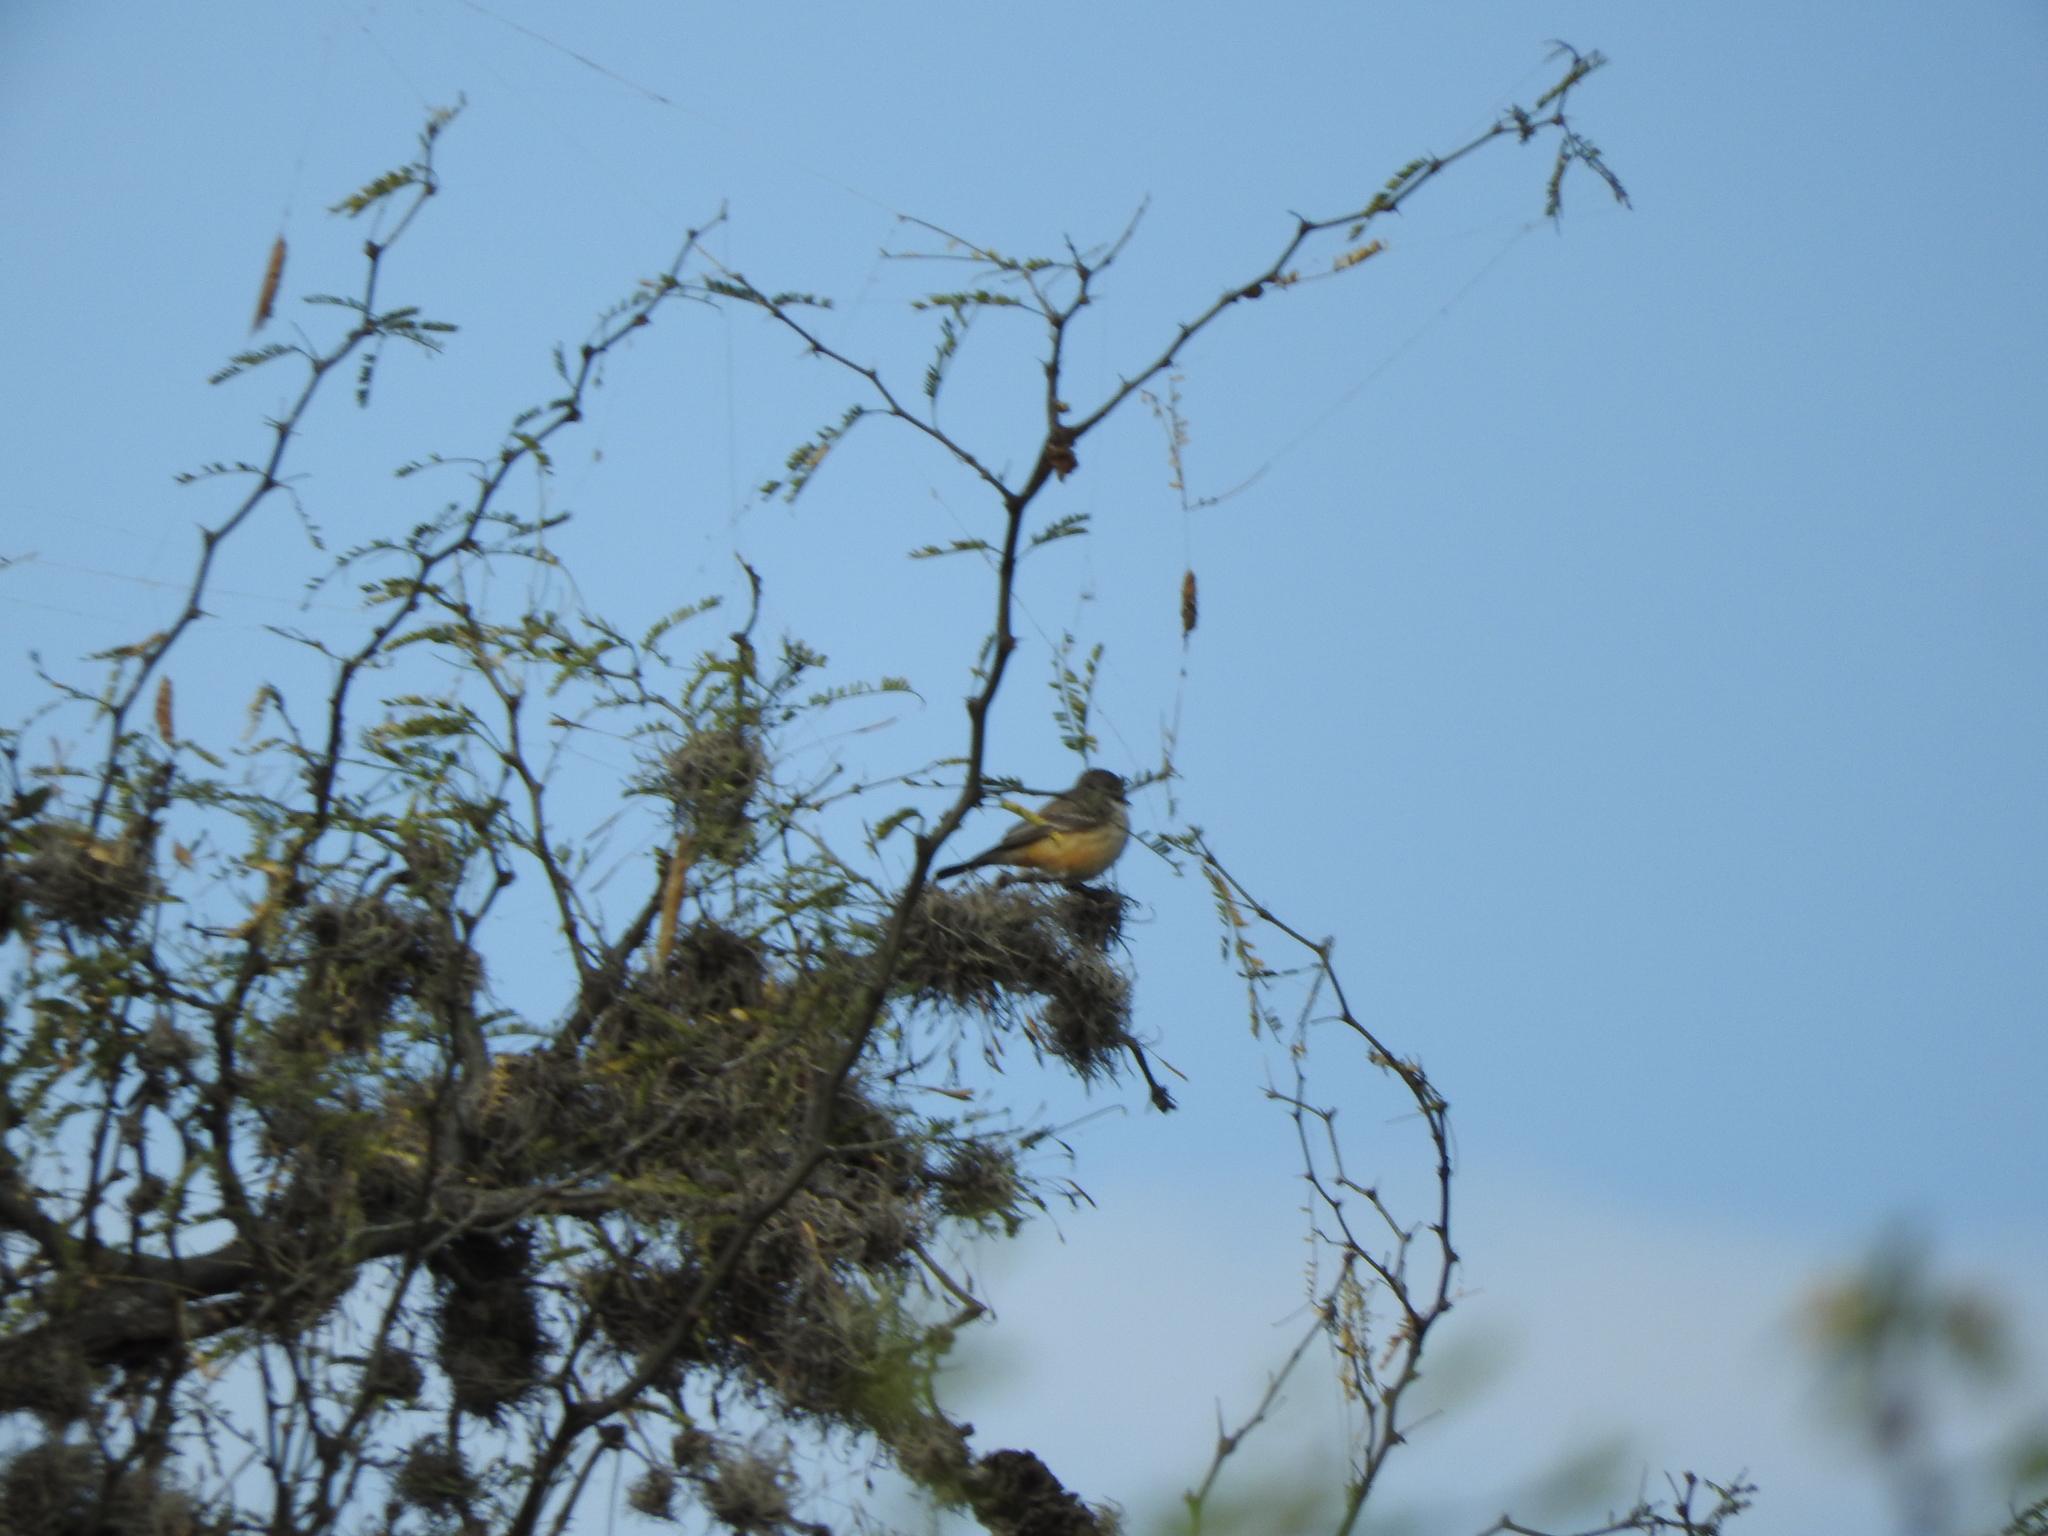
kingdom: Animalia
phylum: Chordata
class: Aves
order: Passeriformes
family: Tyrannidae
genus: Pyrocephalus
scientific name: Pyrocephalus rubinus
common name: Vermilion flycatcher
